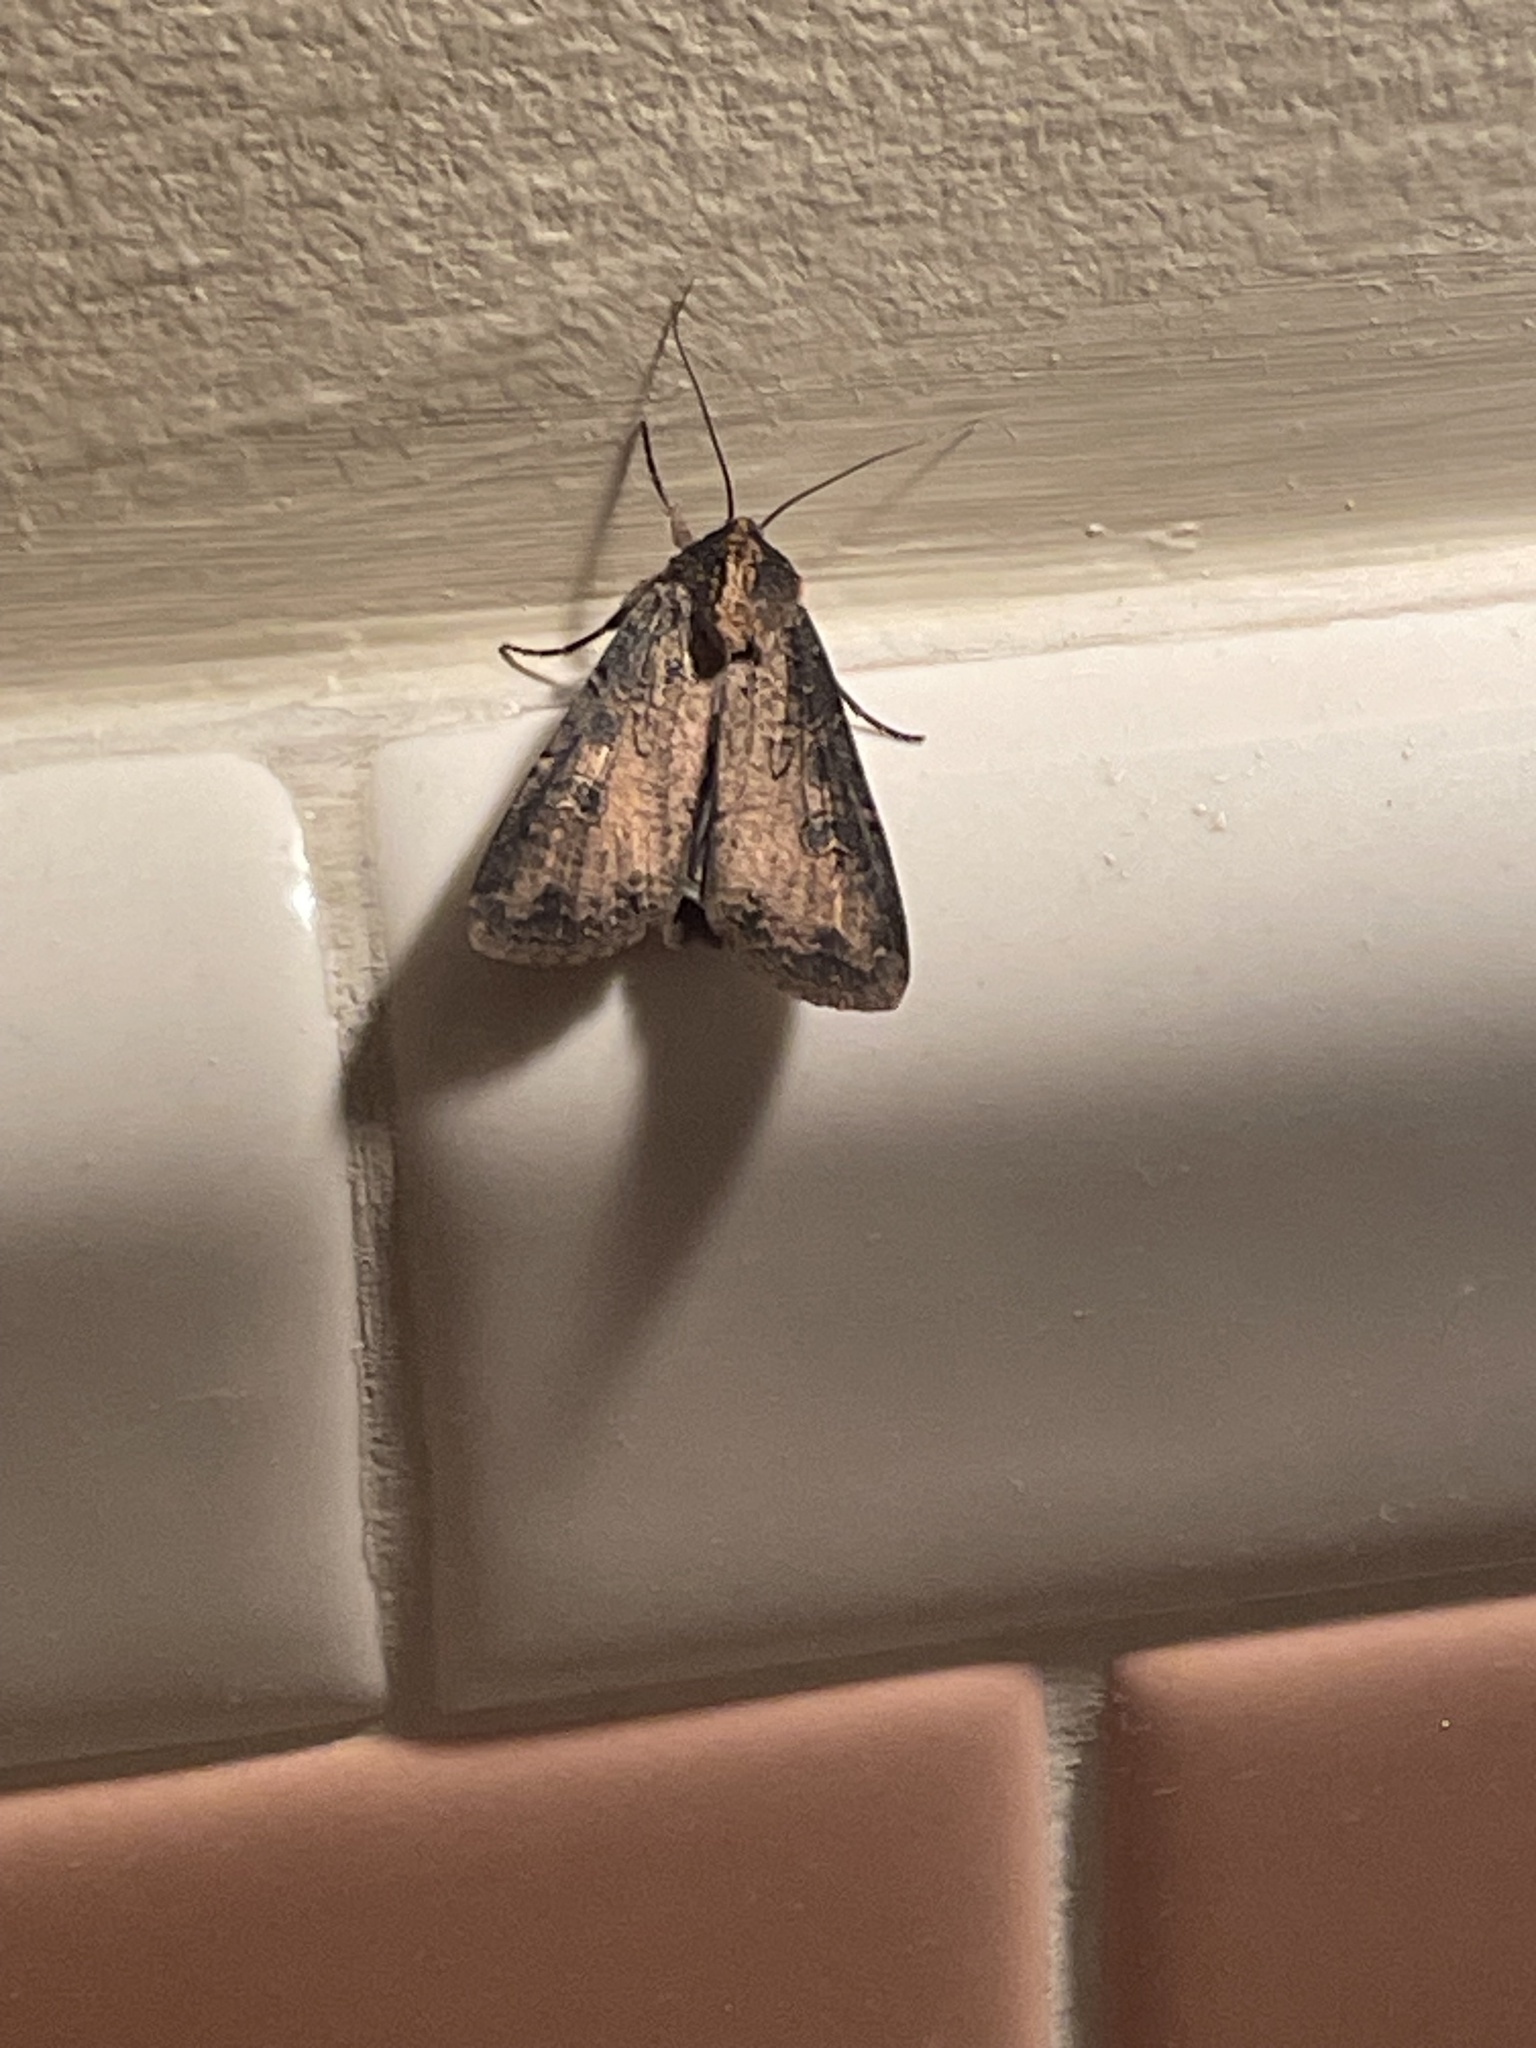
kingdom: Animalia
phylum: Arthropoda
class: Insecta
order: Lepidoptera
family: Noctuidae
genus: Peridroma
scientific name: Peridroma saucia
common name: Pearly underwing
